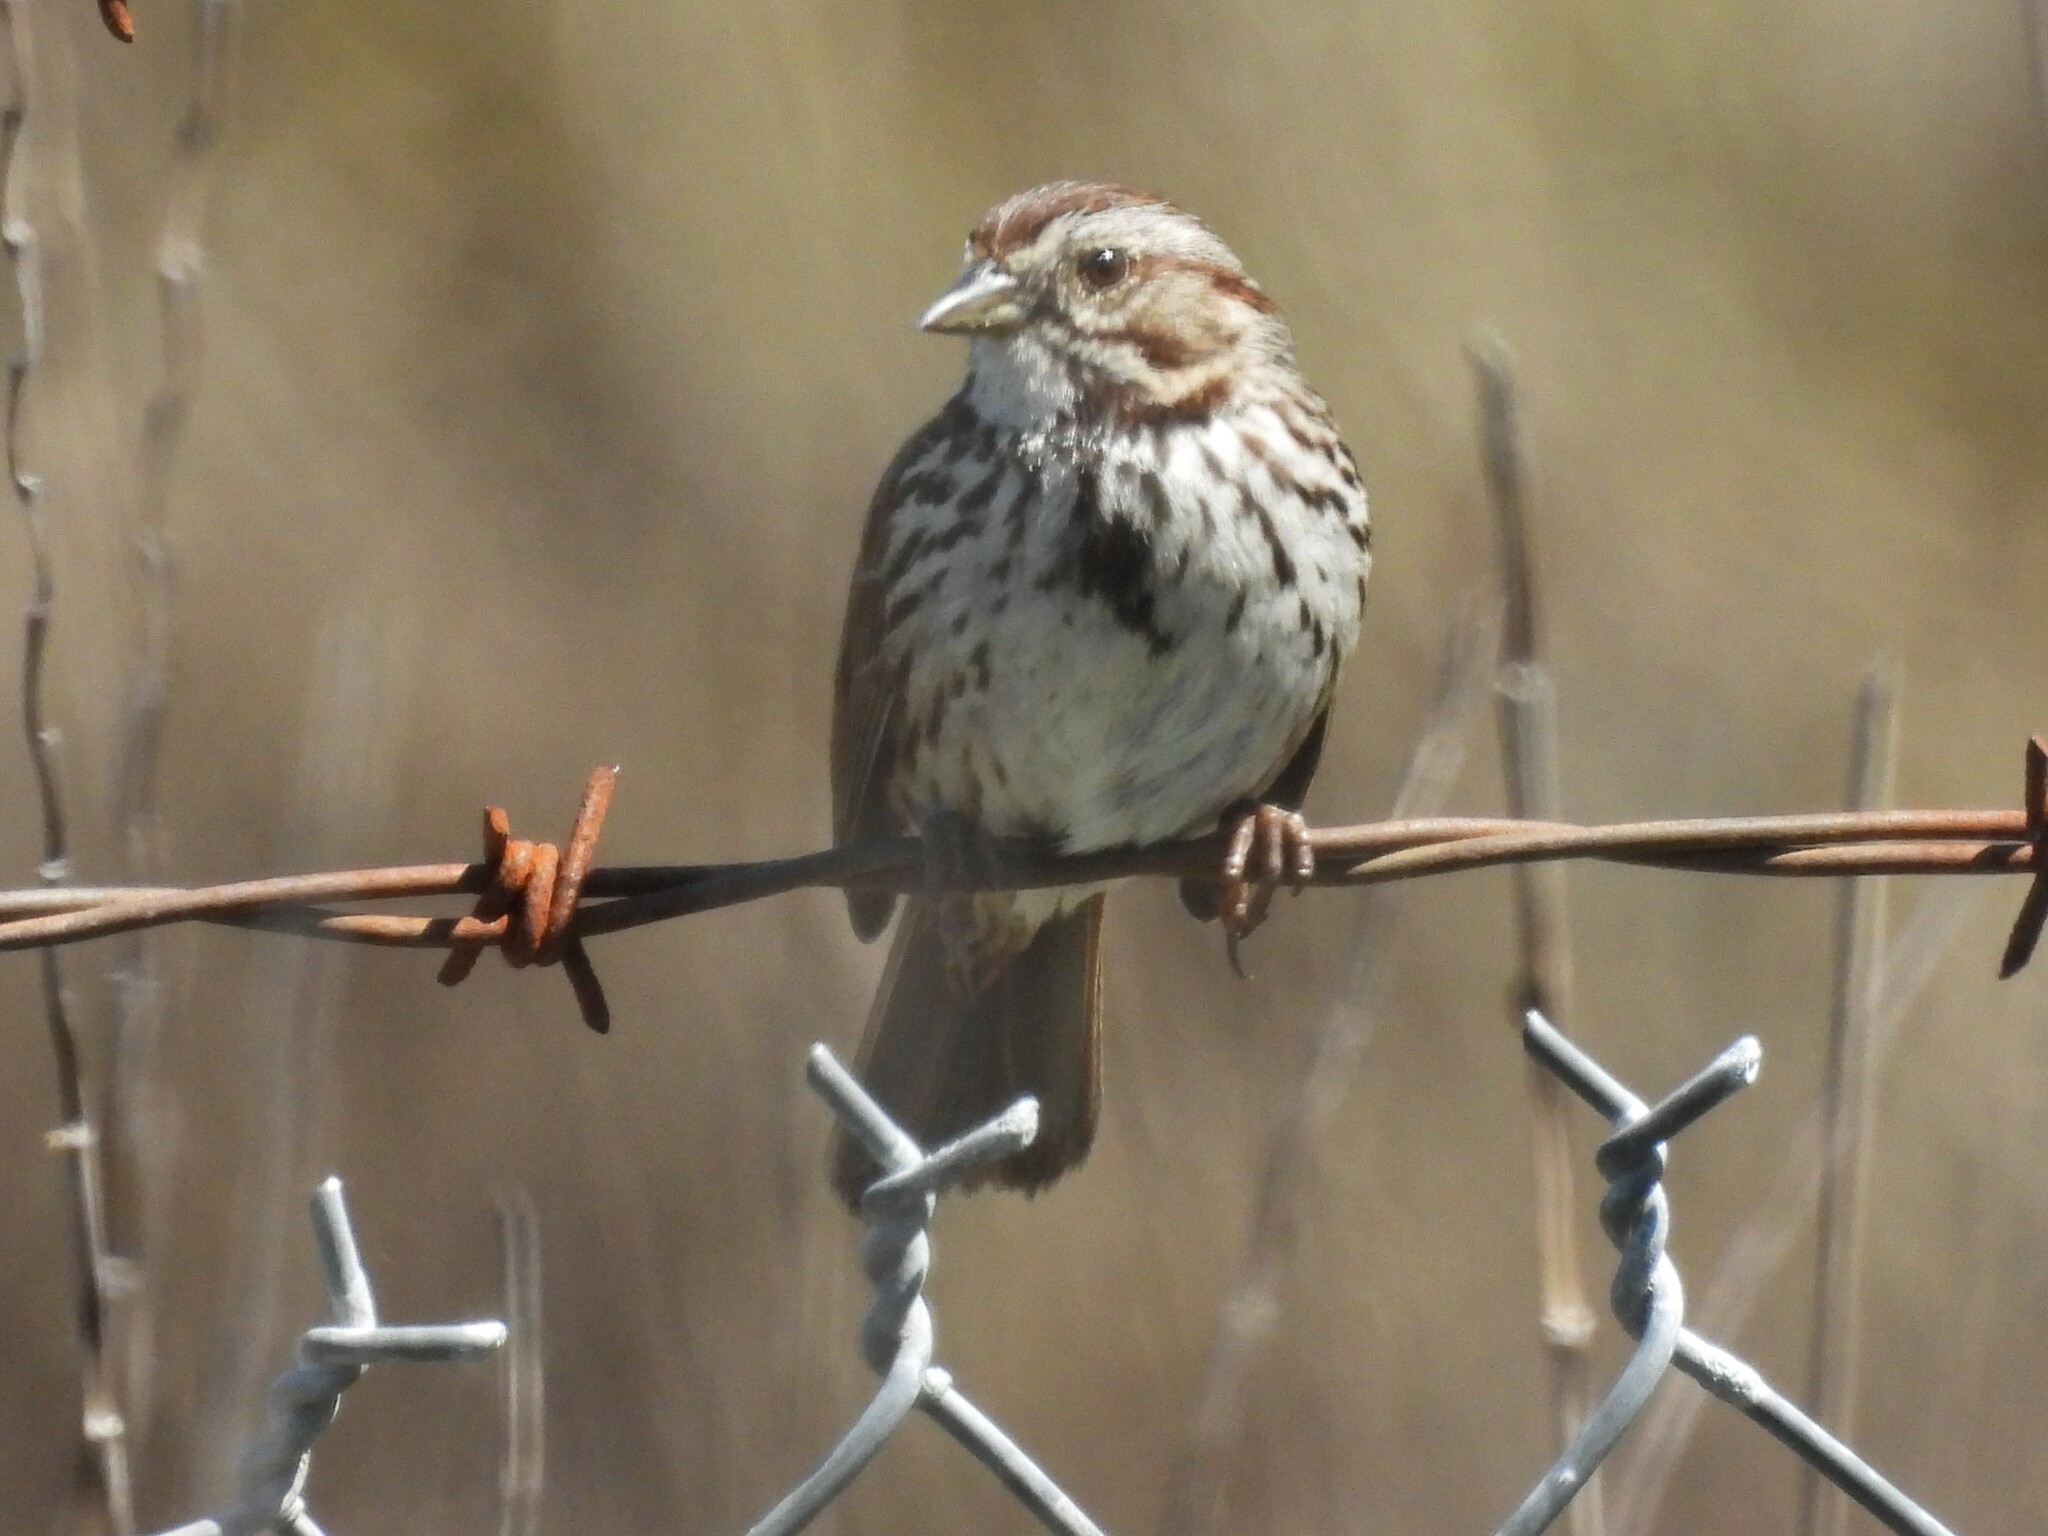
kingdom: Animalia
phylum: Chordata
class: Aves
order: Passeriformes
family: Passerellidae
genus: Melospiza
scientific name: Melospiza melodia
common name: Song sparrow
